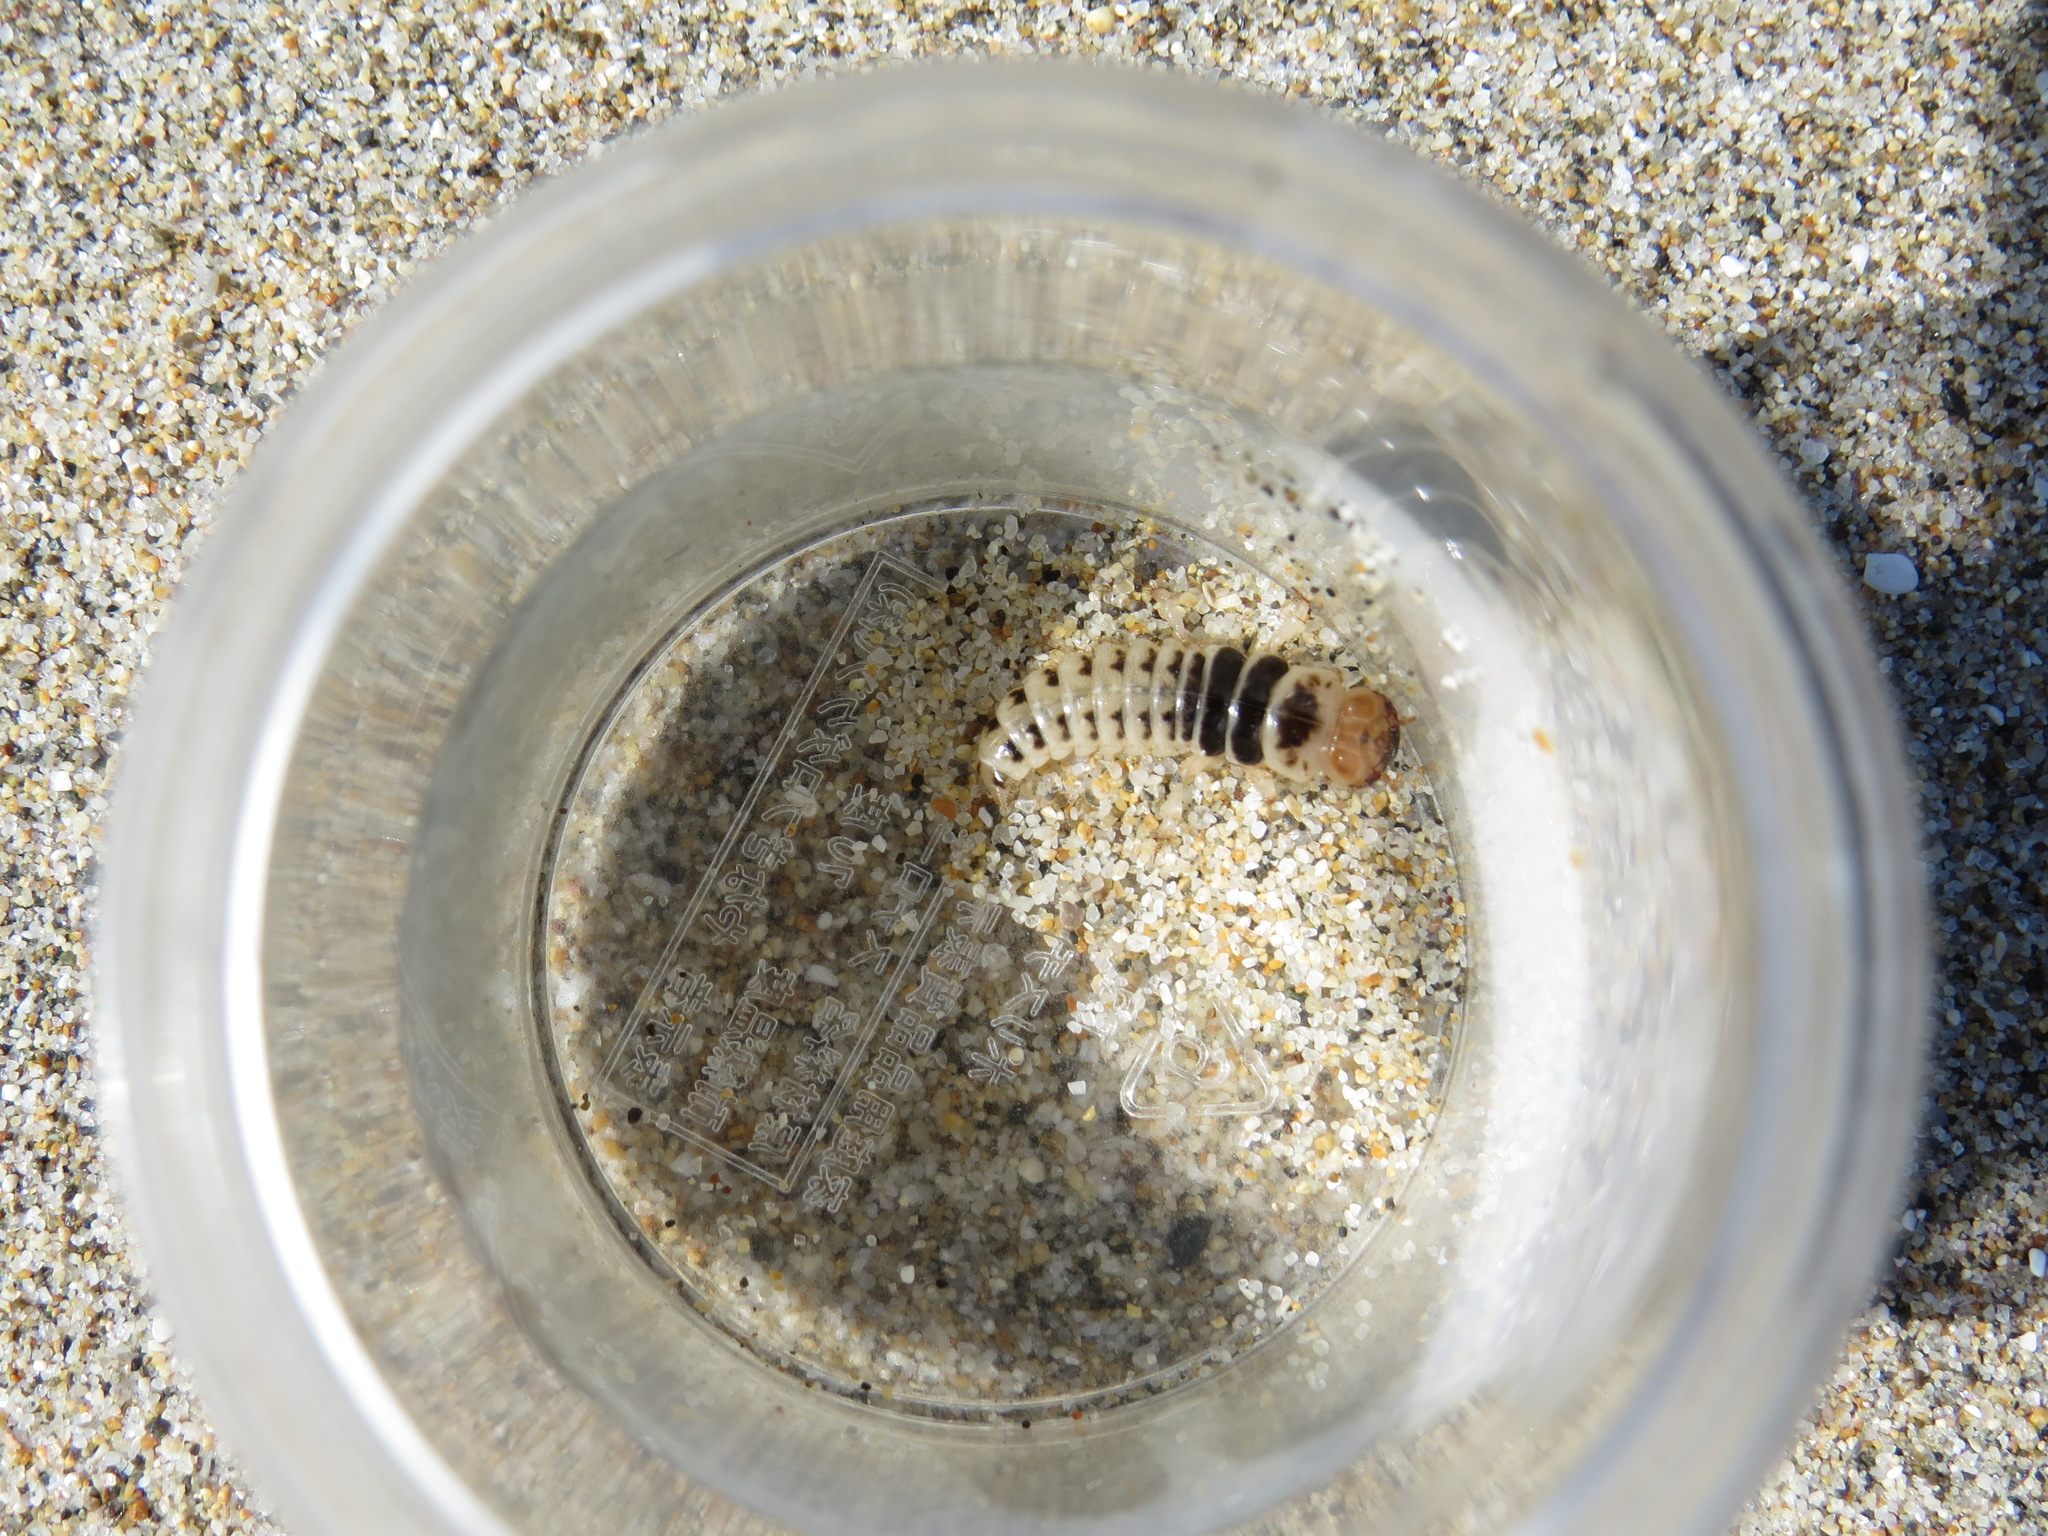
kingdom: Animalia
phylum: Arthropoda
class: Insecta
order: Coleoptera
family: Staphylinidae
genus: Thinopinus
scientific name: Thinopinus pictus
